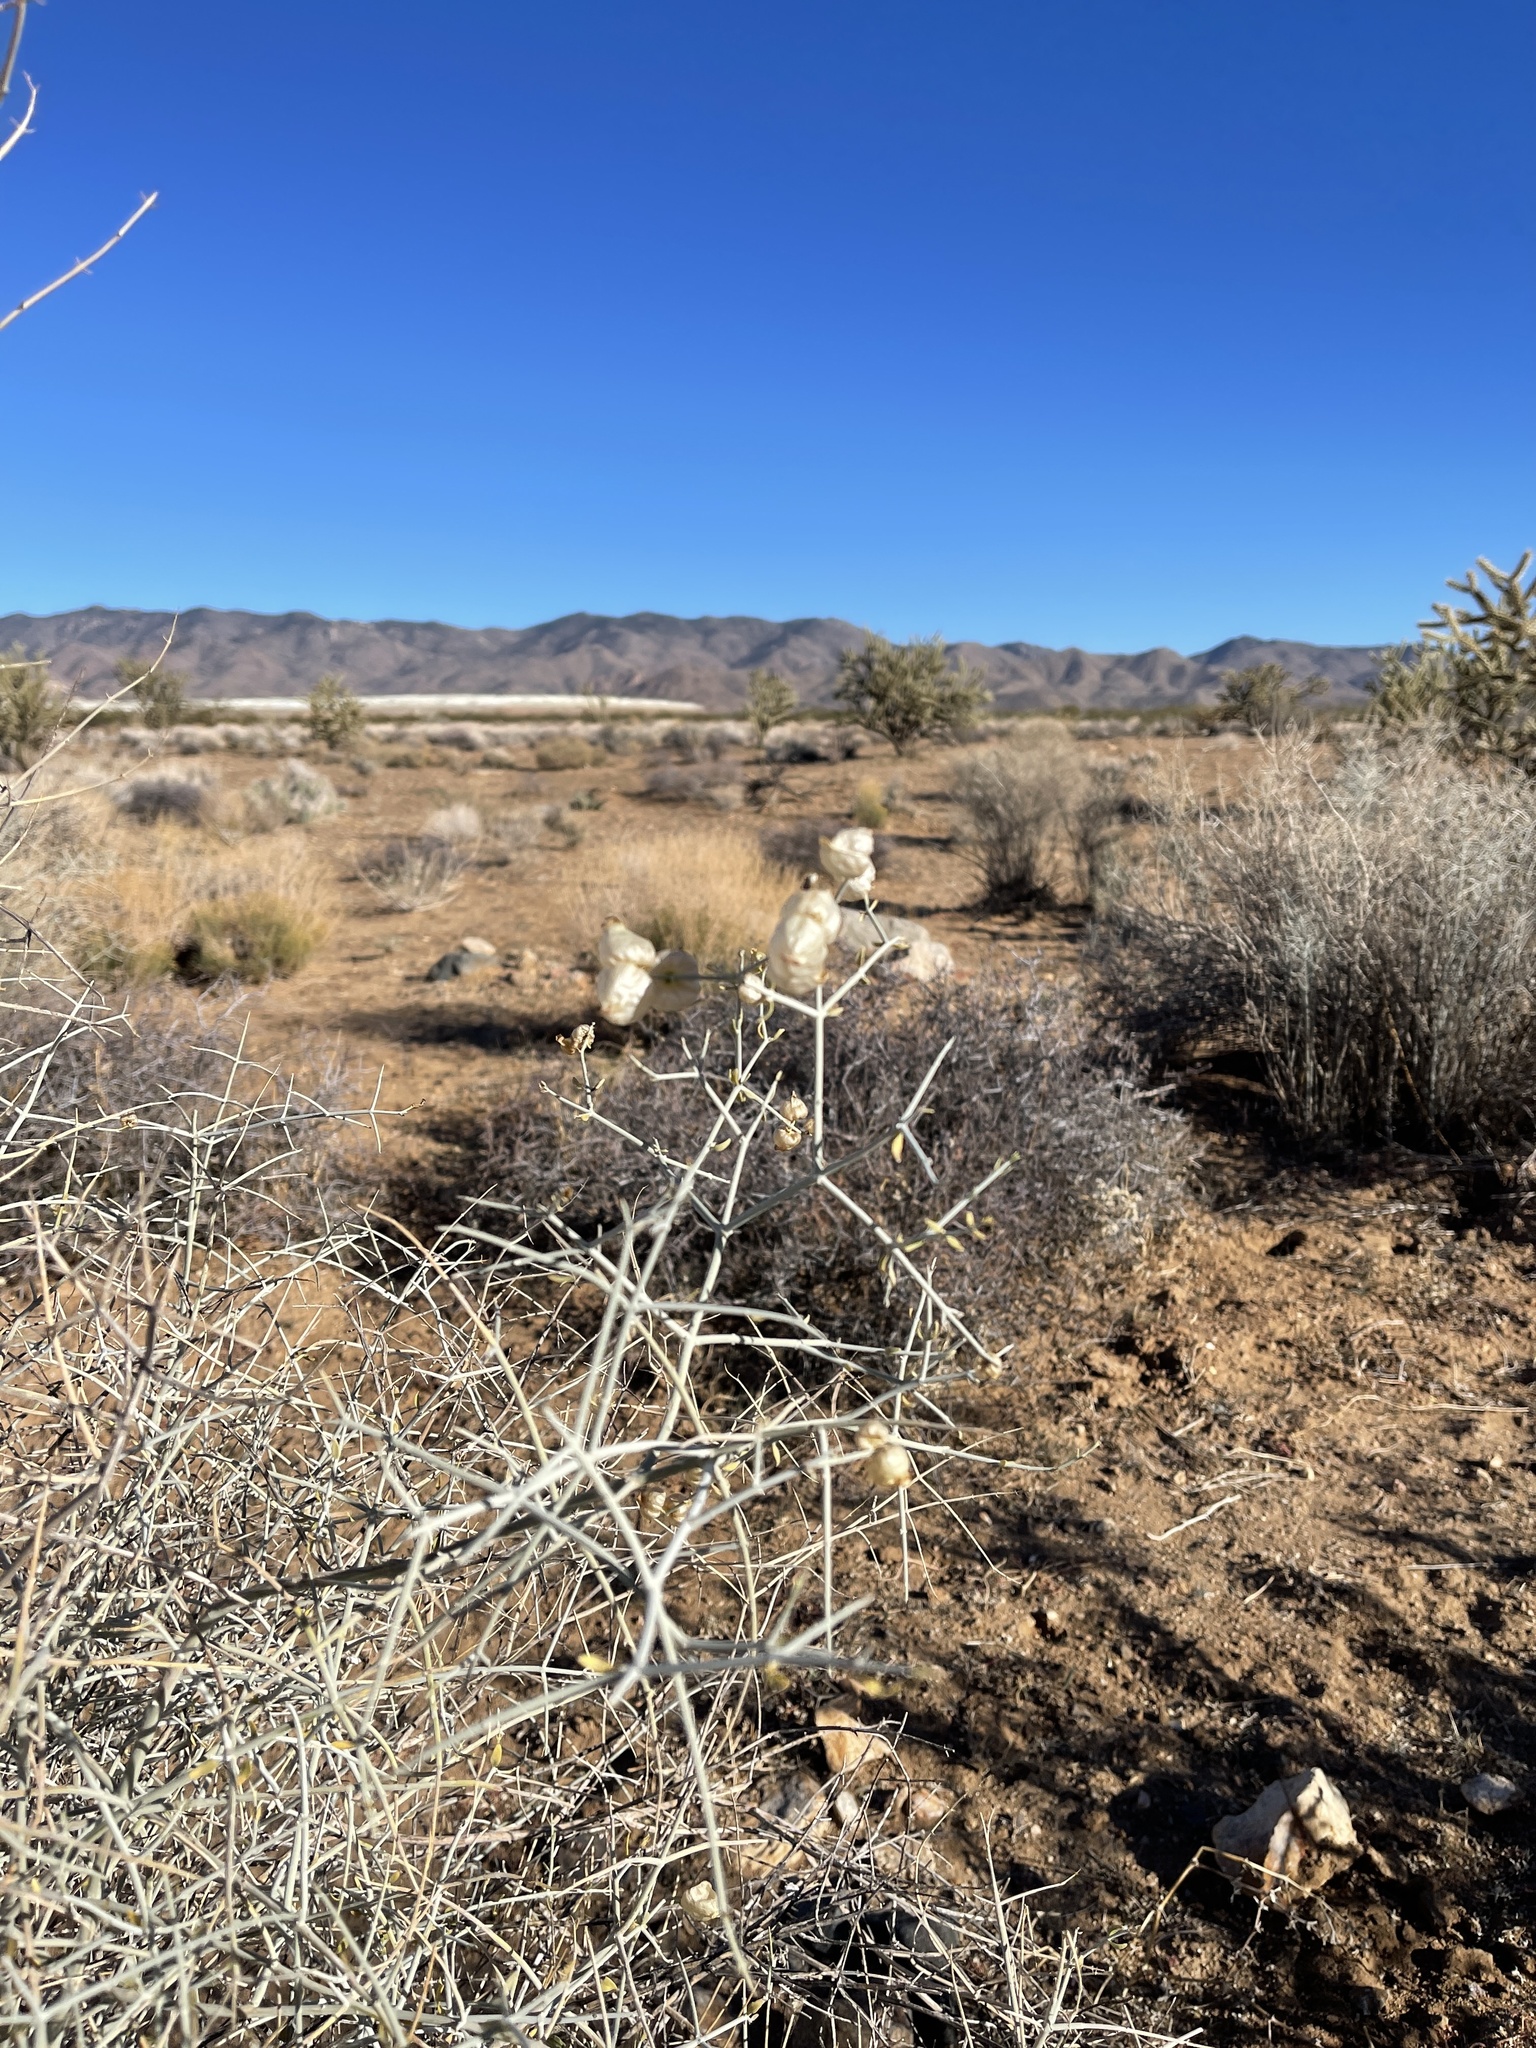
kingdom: Plantae
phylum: Tracheophyta
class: Magnoliopsida
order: Lamiales
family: Lamiaceae
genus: Scutellaria
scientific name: Scutellaria mexicana
